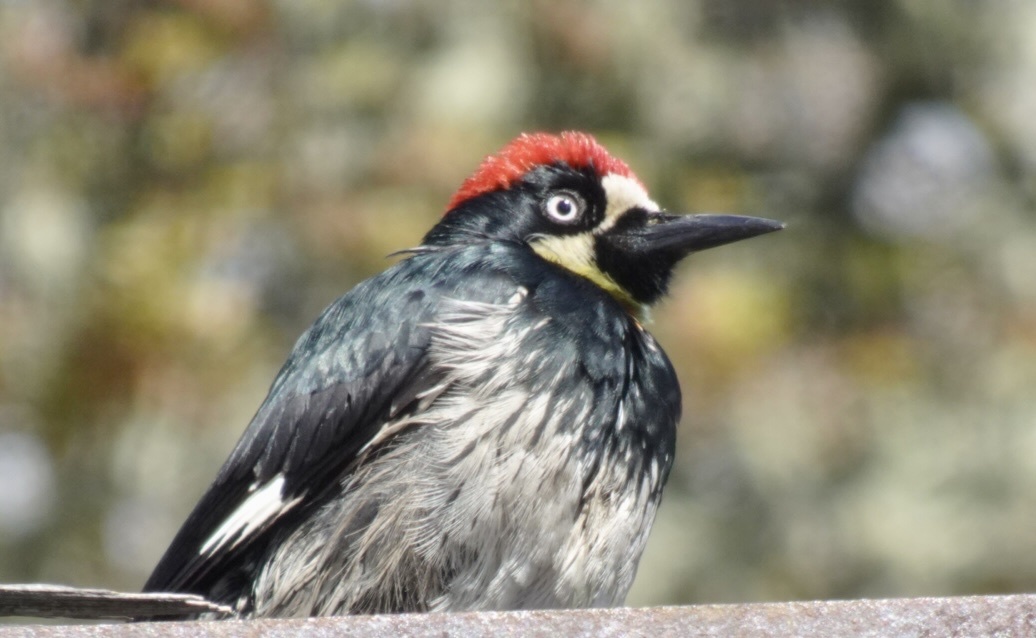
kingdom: Animalia
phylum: Chordata
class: Aves
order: Piciformes
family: Picidae
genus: Melanerpes
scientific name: Melanerpes formicivorus
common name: Acorn woodpecker
